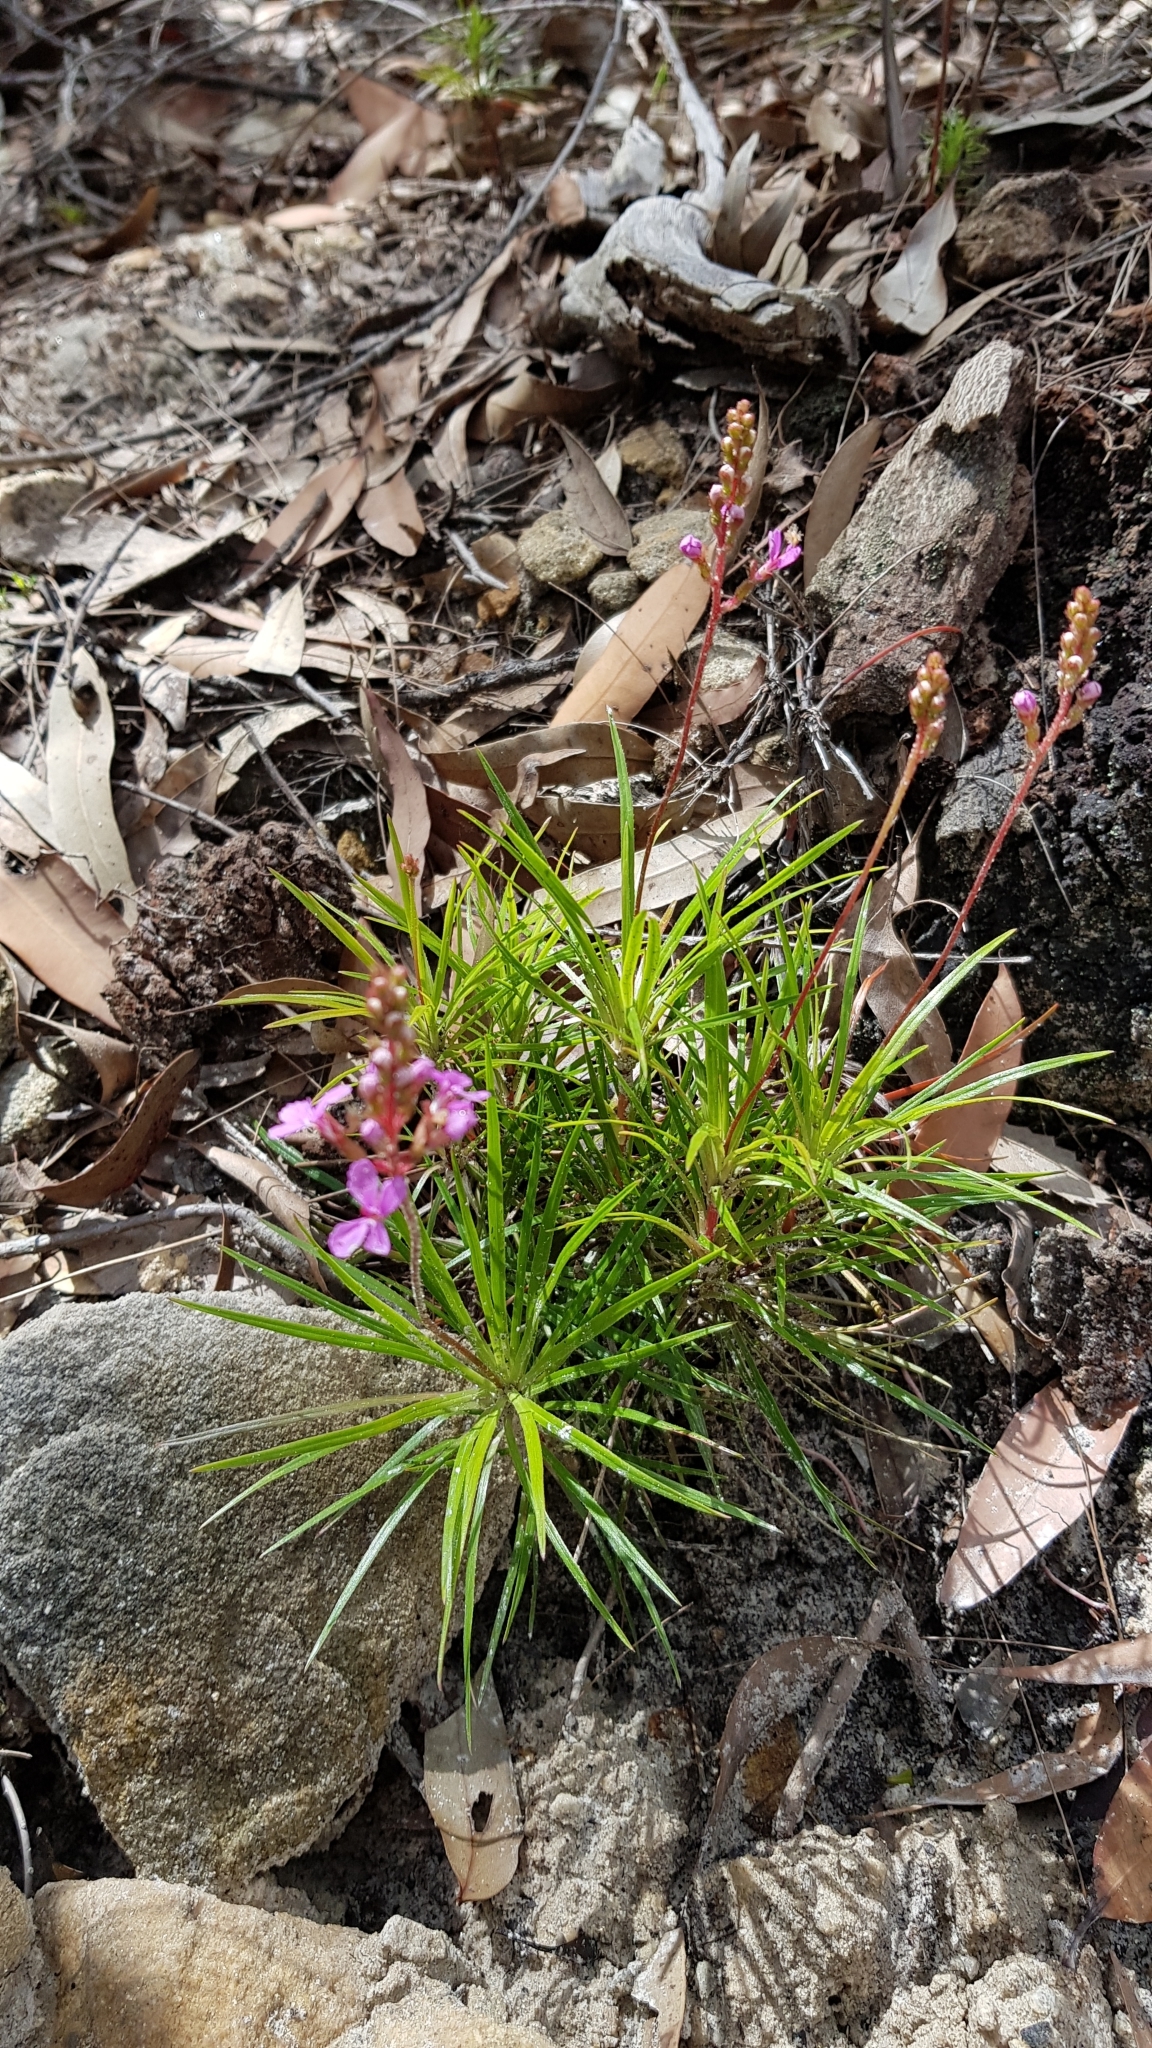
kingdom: Plantae
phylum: Tracheophyta
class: Magnoliopsida
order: Asterales
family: Stylidiaceae
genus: Stylidium
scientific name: Stylidium productum
